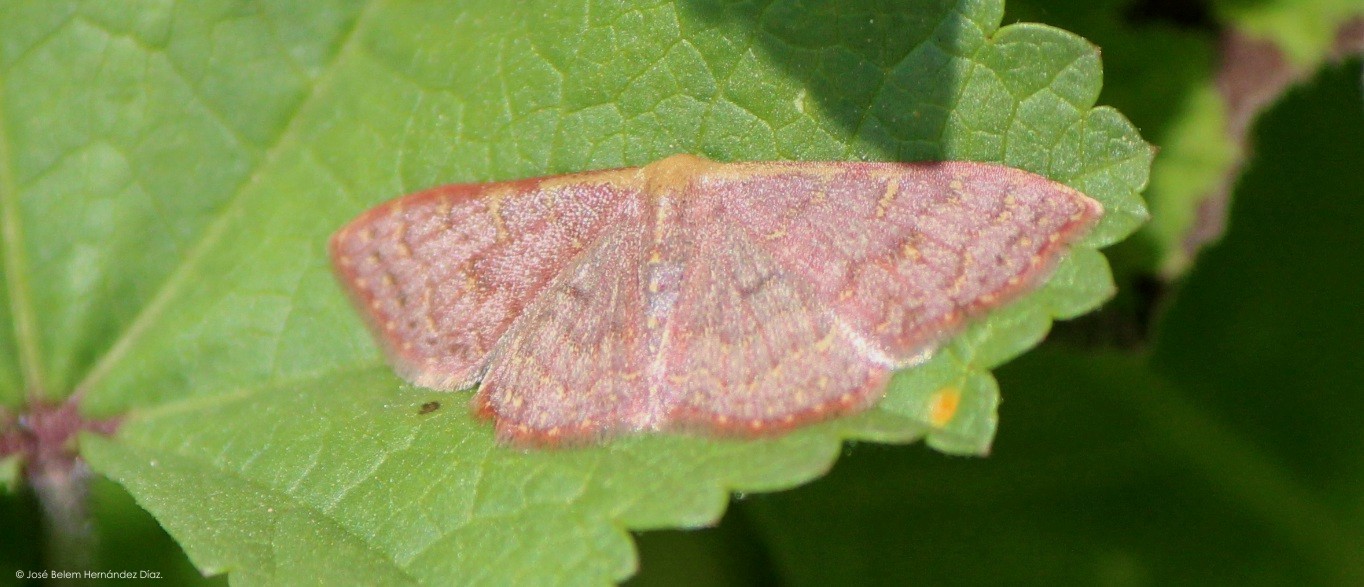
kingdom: Animalia
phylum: Arthropoda
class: Insecta
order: Lepidoptera
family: Geometridae
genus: Leptostales
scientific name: Leptostales pannaria
